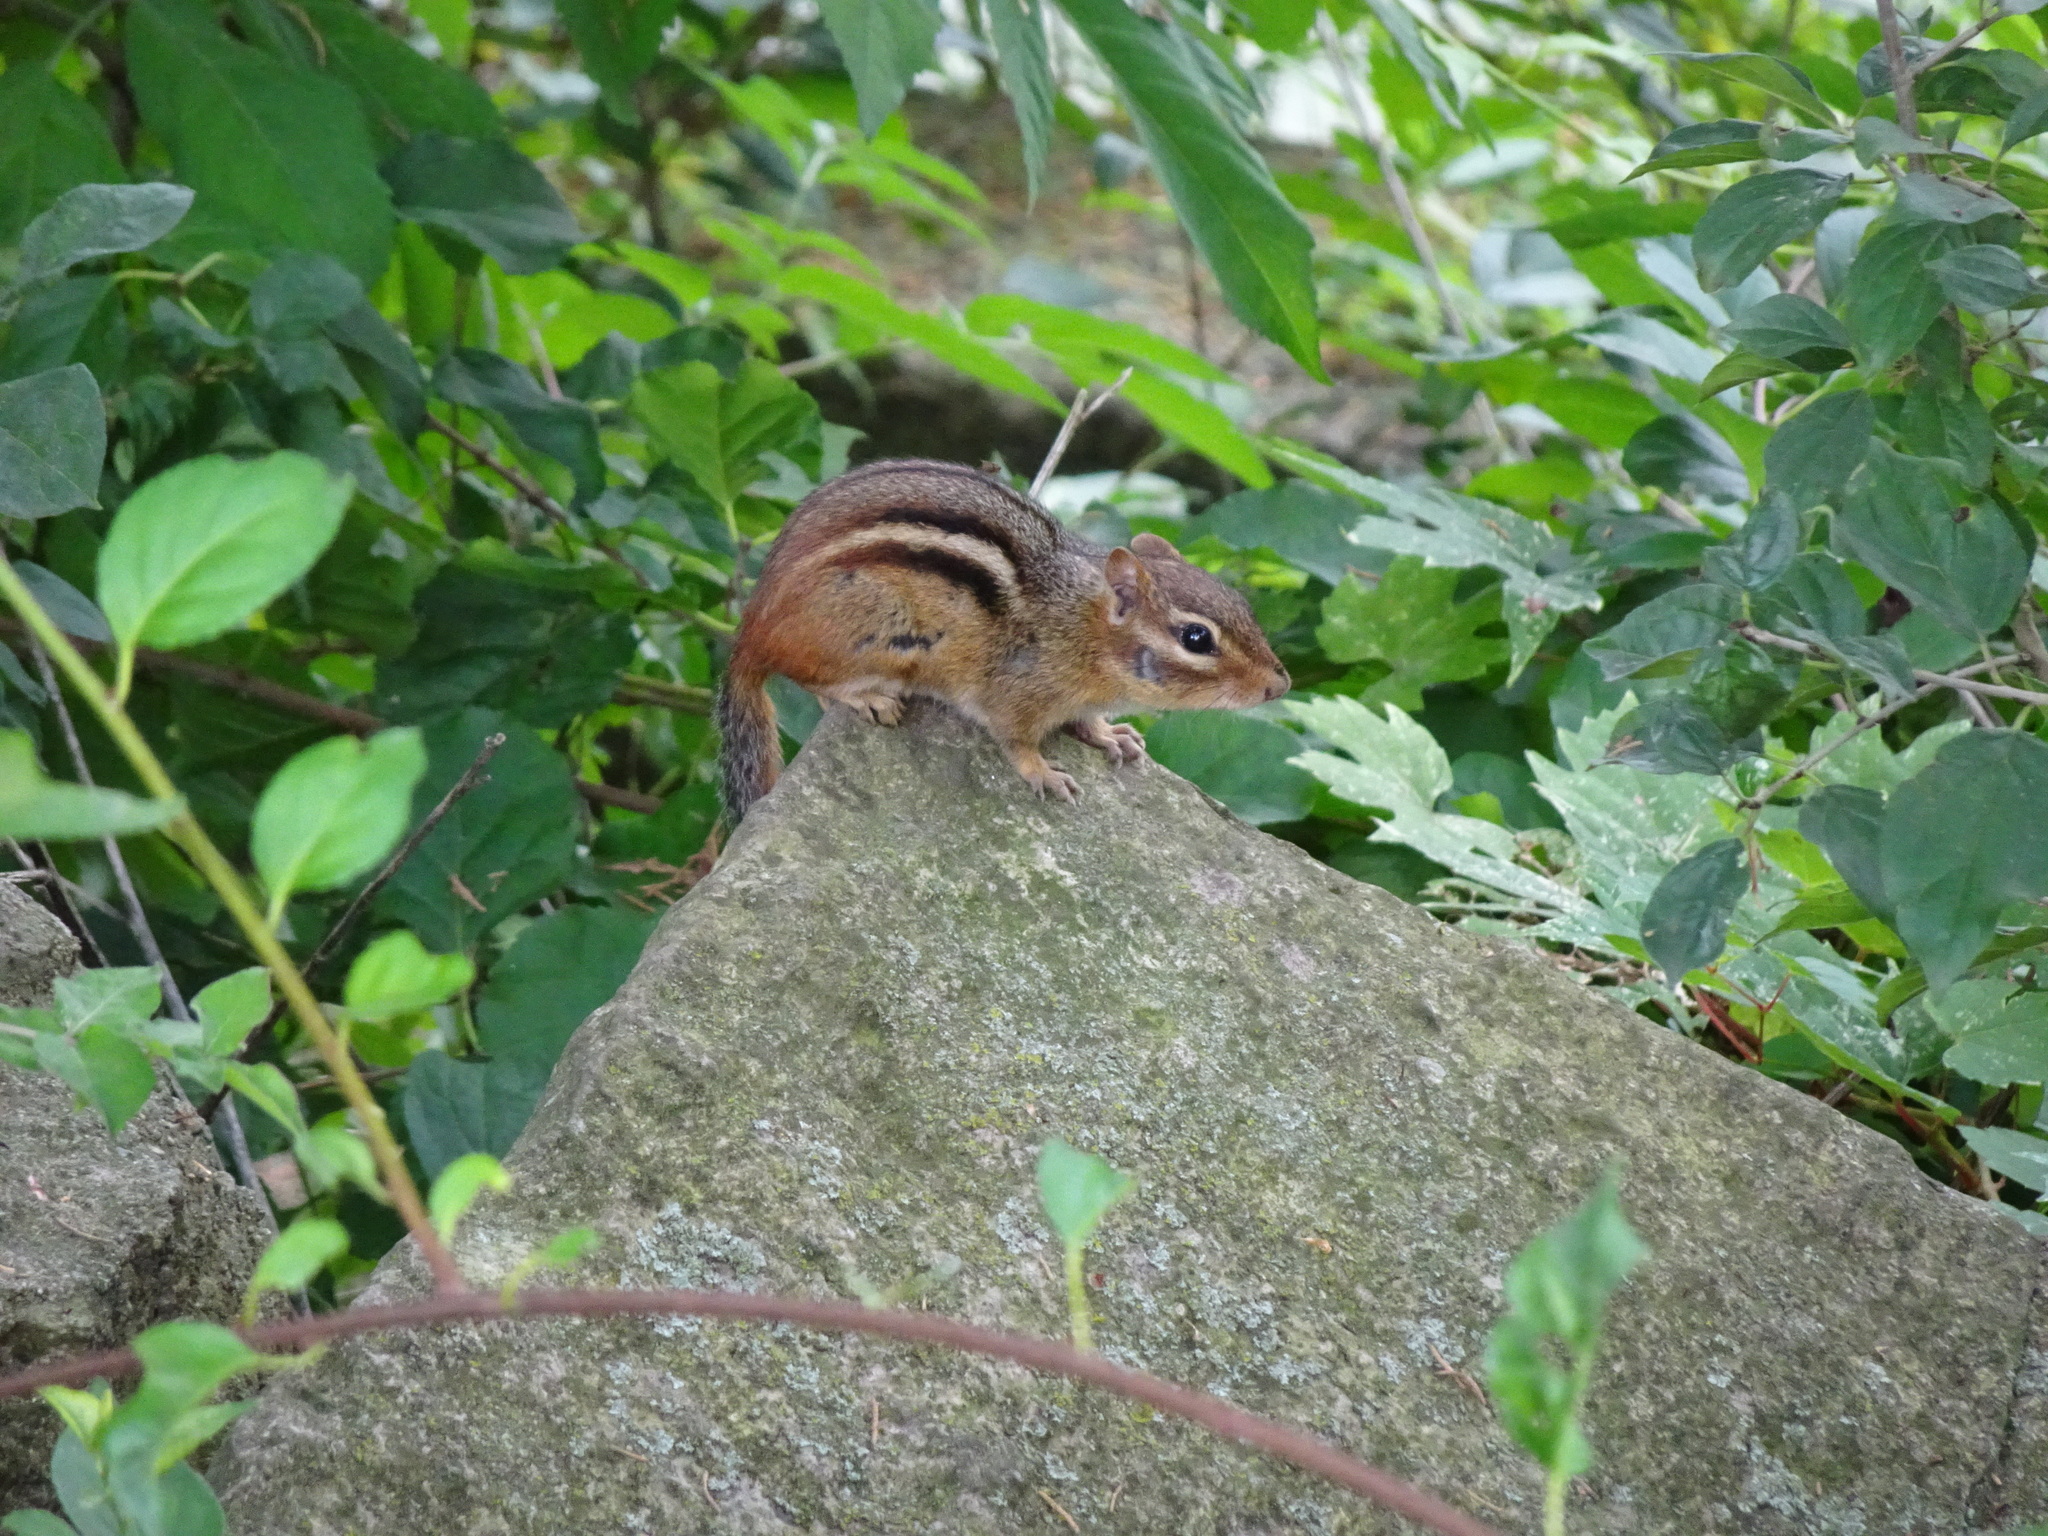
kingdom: Animalia
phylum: Chordata
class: Mammalia
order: Rodentia
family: Sciuridae
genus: Tamias
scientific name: Tamias striatus
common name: Eastern chipmunk
